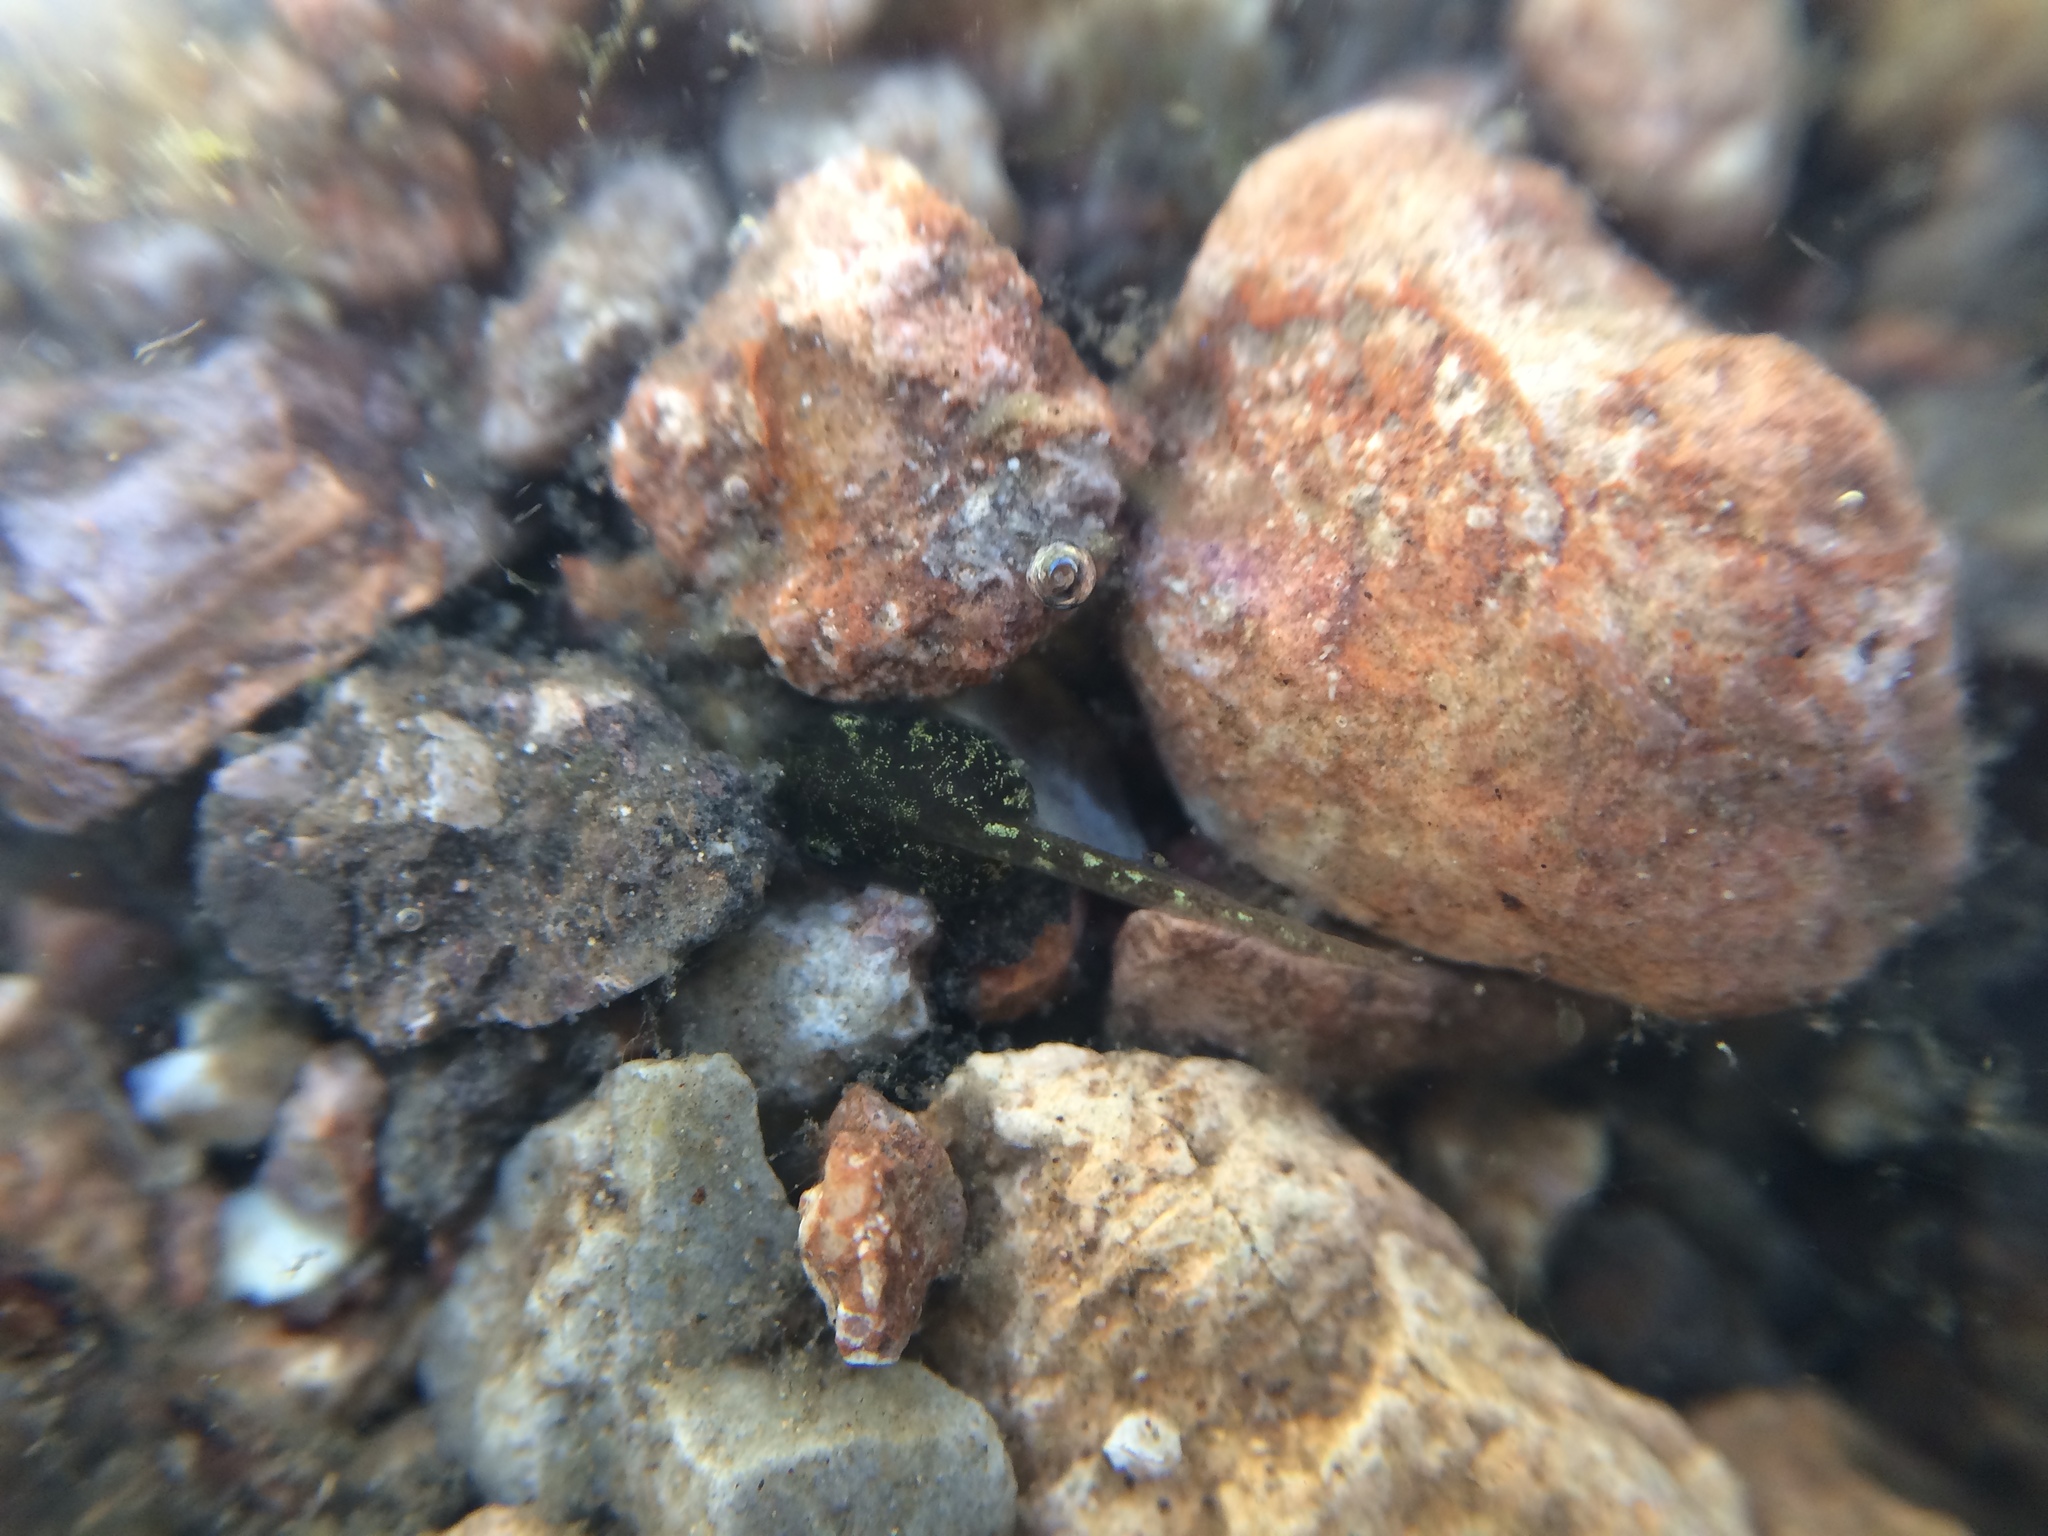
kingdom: Animalia
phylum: Chordata
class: Amphibia
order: Anura
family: Hylidae
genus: Pseudacris
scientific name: Pseudacris regilla
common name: Pacific chorus frog
